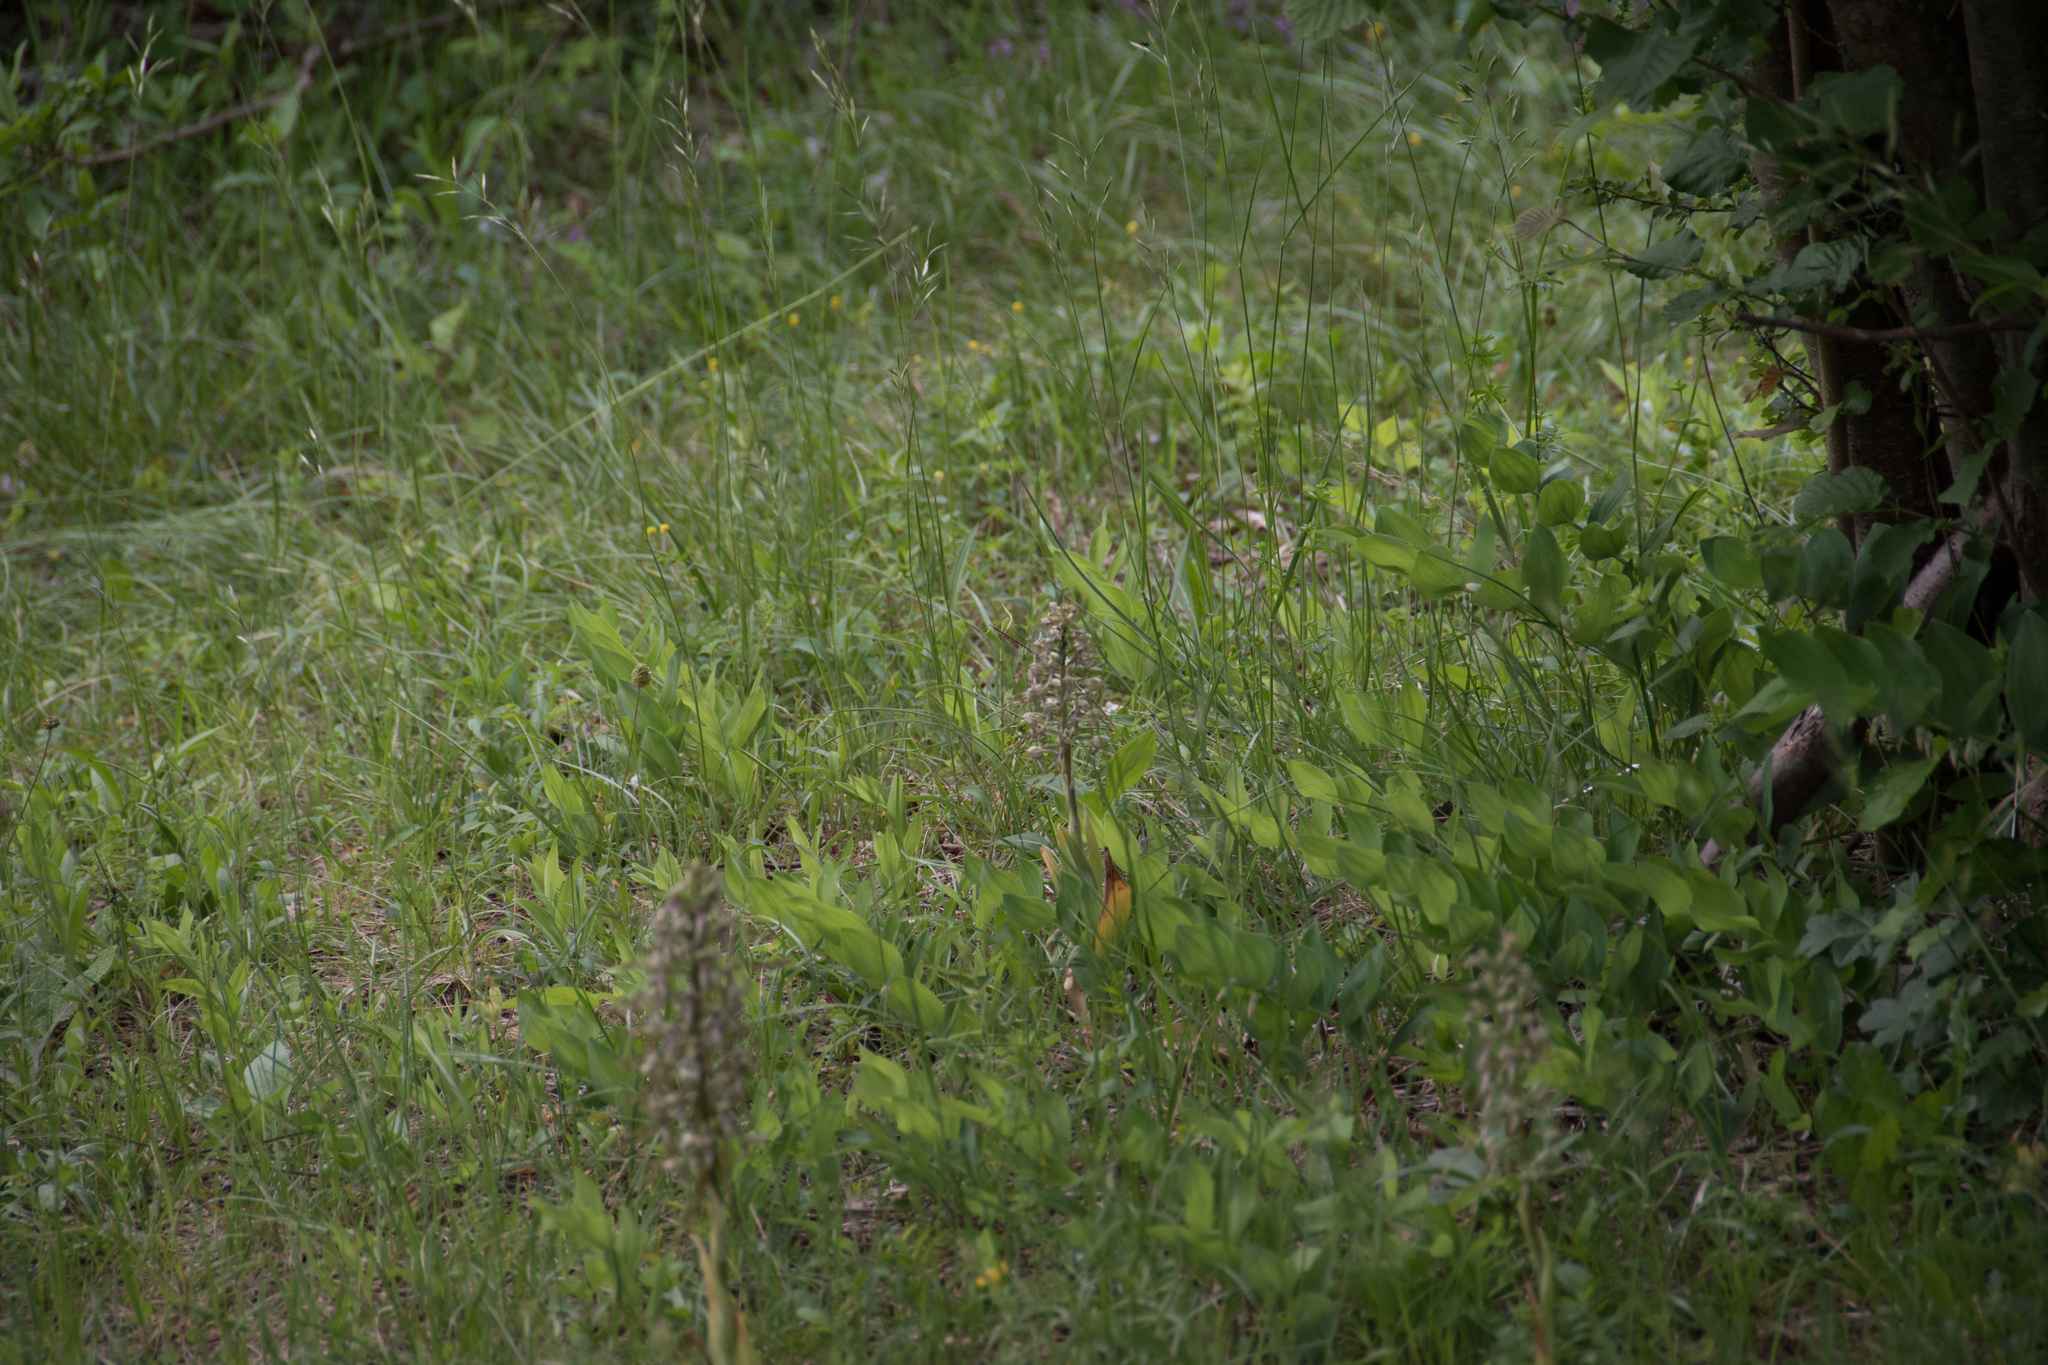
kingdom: Plantae
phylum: Tracheophyta
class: Liliopsida
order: Asparagales
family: Orchidaceae
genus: Himantoglossum
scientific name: Himantoglossum hircinum
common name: Lizard orchid
